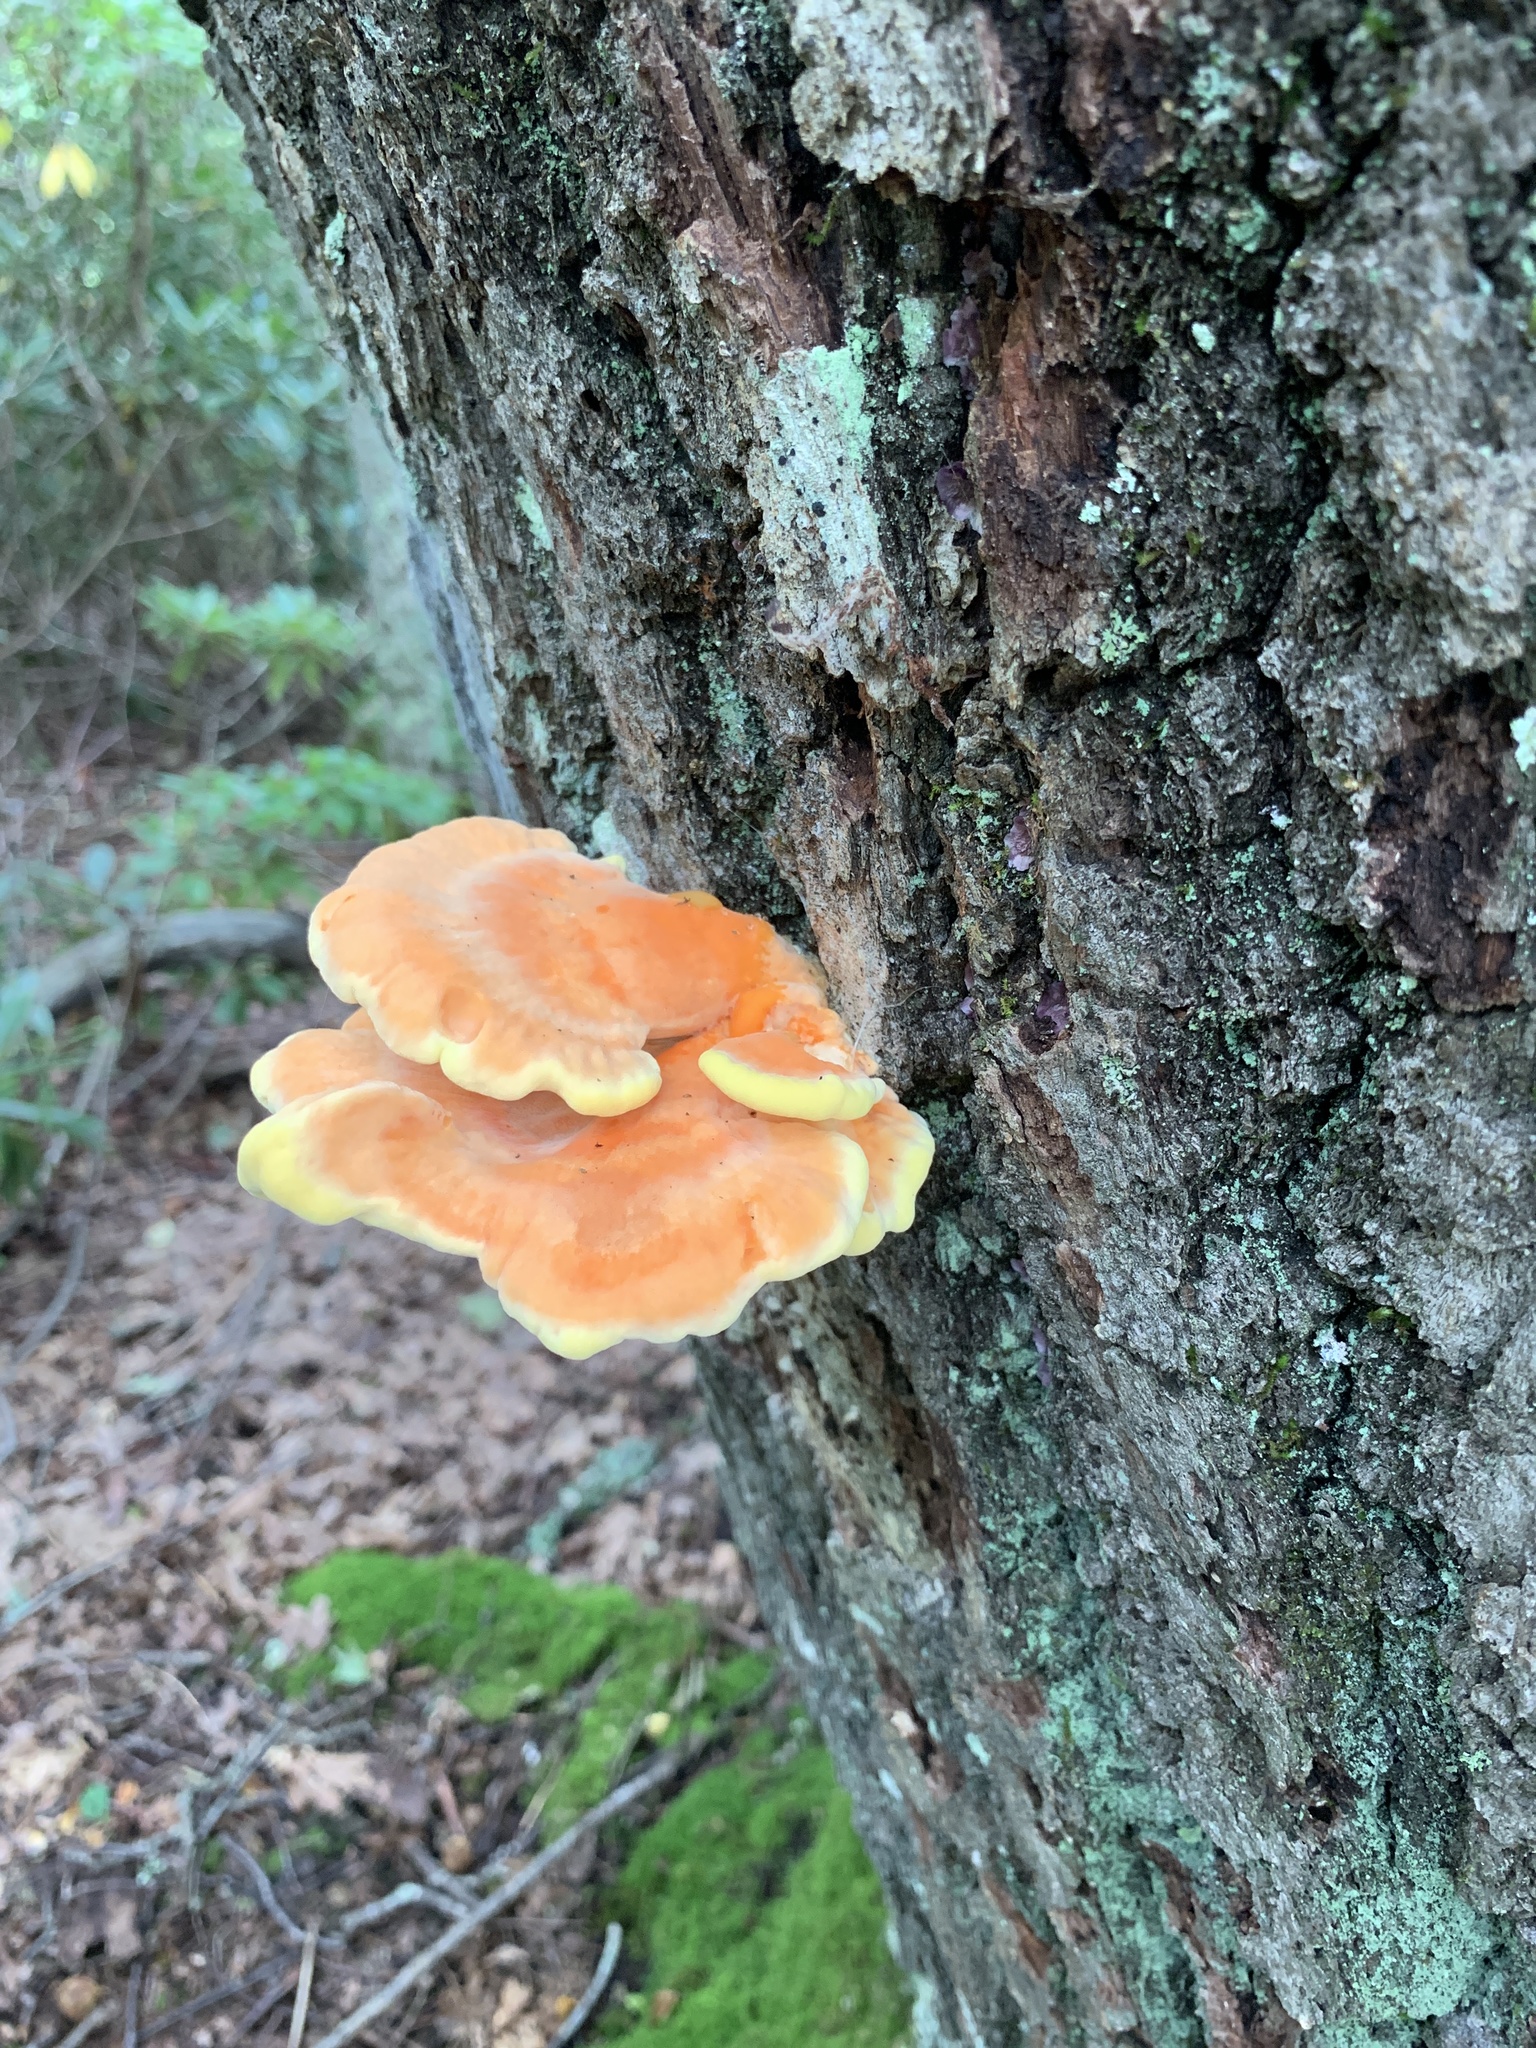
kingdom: Fungi
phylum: Basidiomycota
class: Agaricomycetes
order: Polyporales
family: Laetiporaceae
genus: Laetiporus
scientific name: Laetiporus sulphureus
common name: Chicken of the woods
